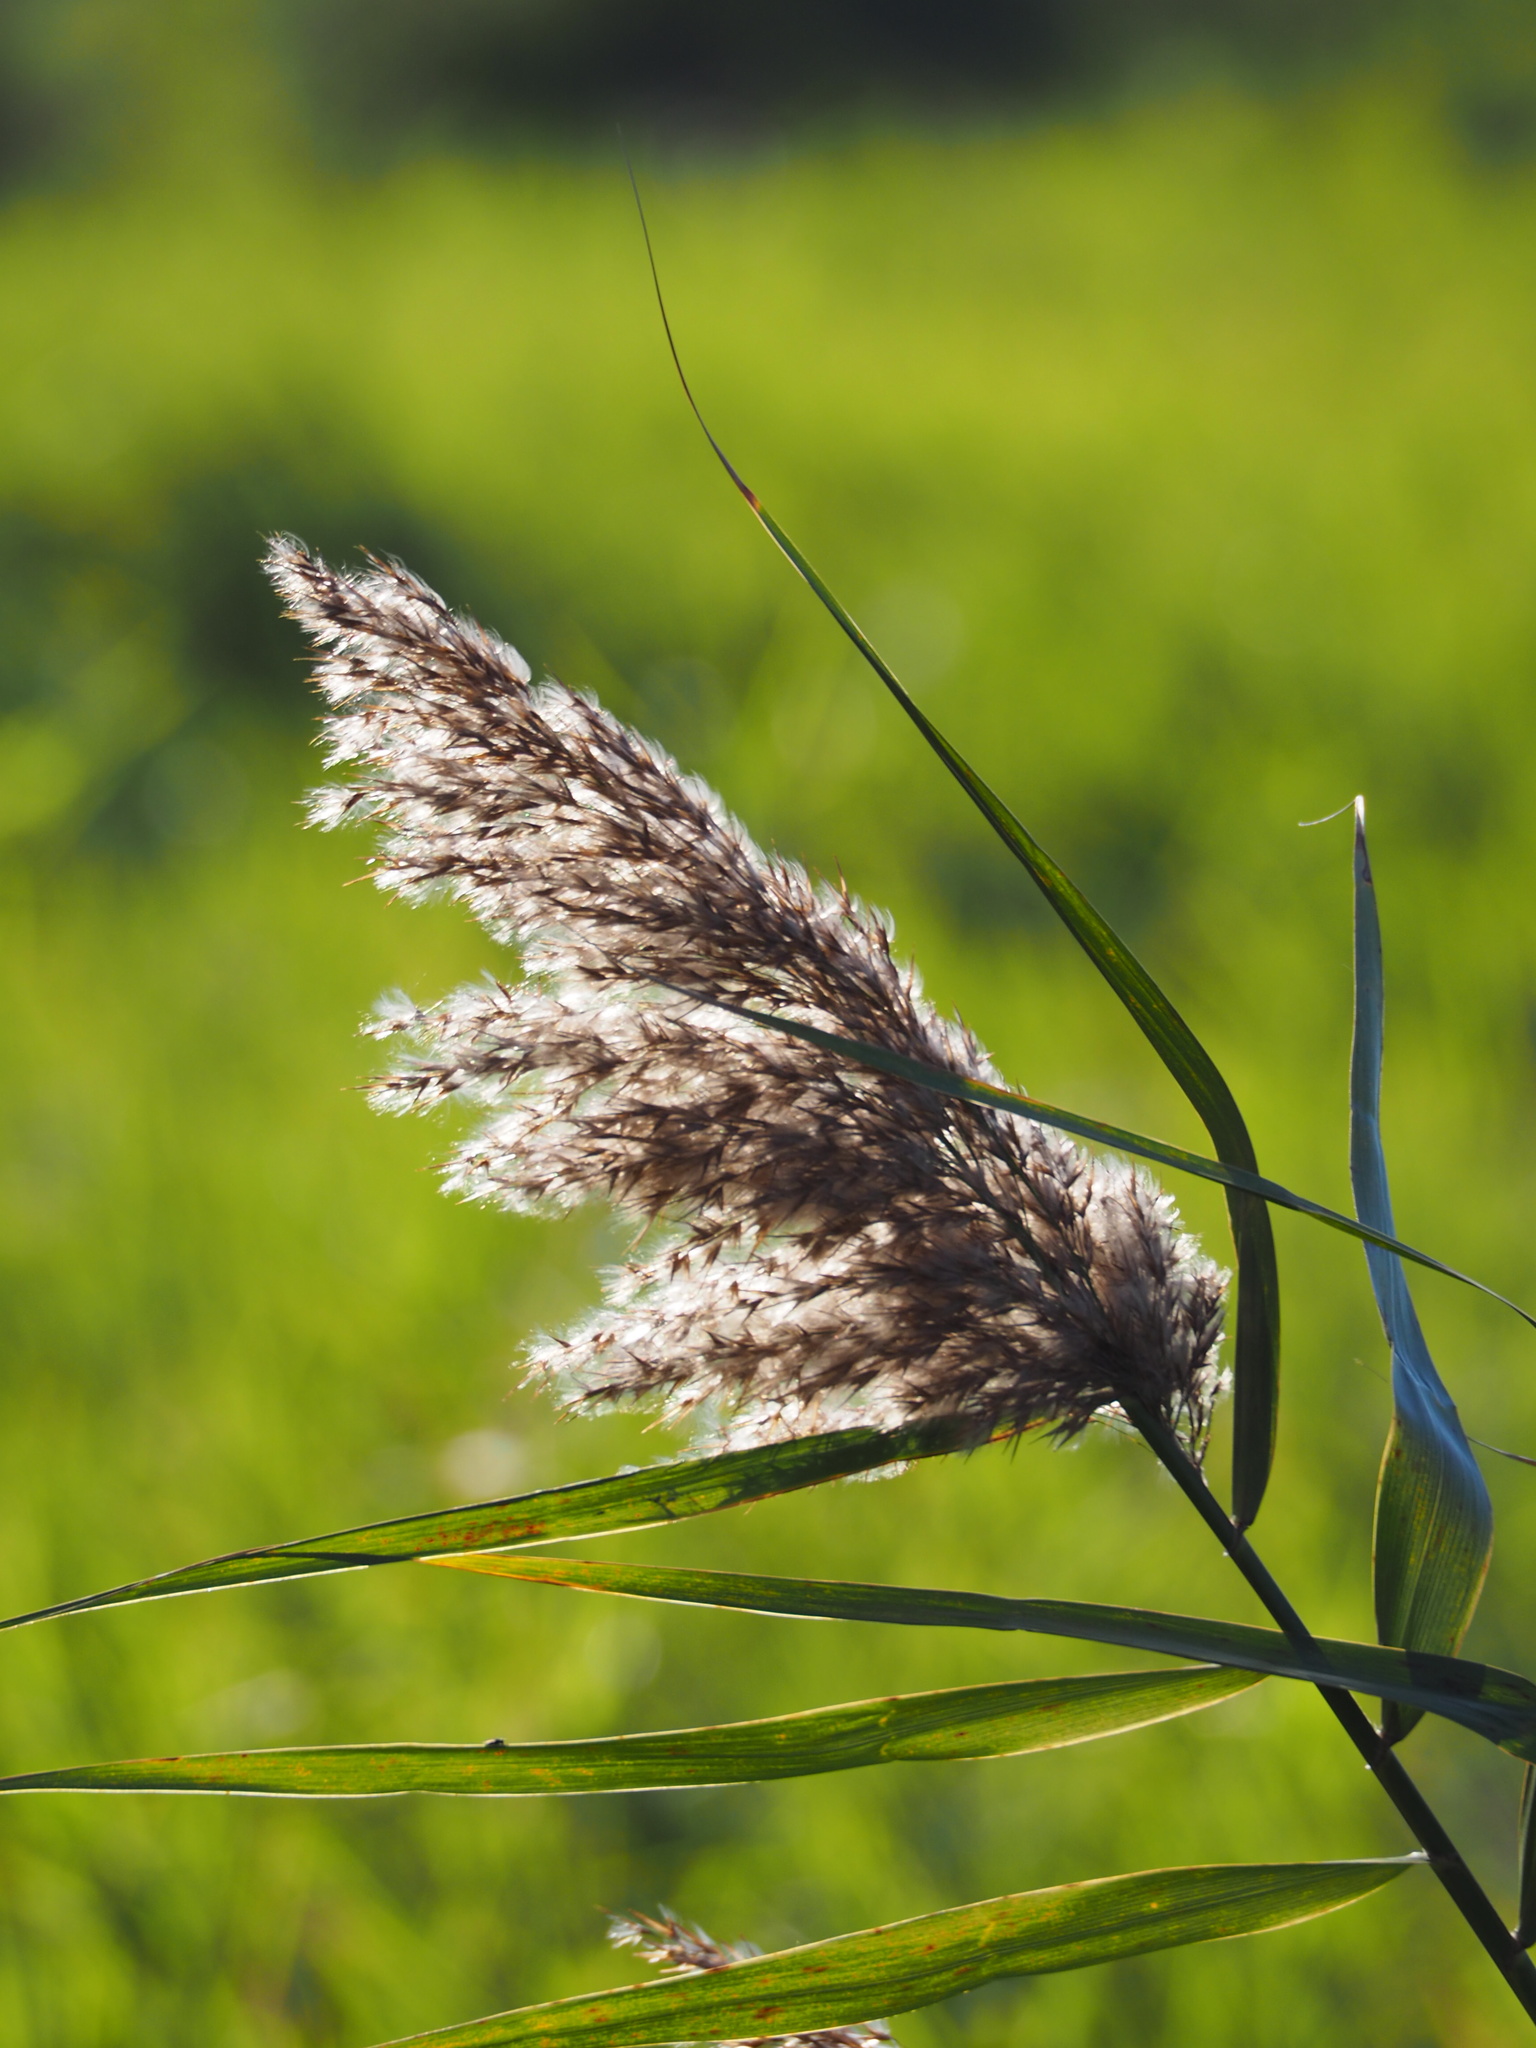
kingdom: Plantae
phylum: Tracheophyta
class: Liliopsida
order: Poales
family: Poaceae
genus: Phragmites
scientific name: Phragmites australis
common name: Common reed
